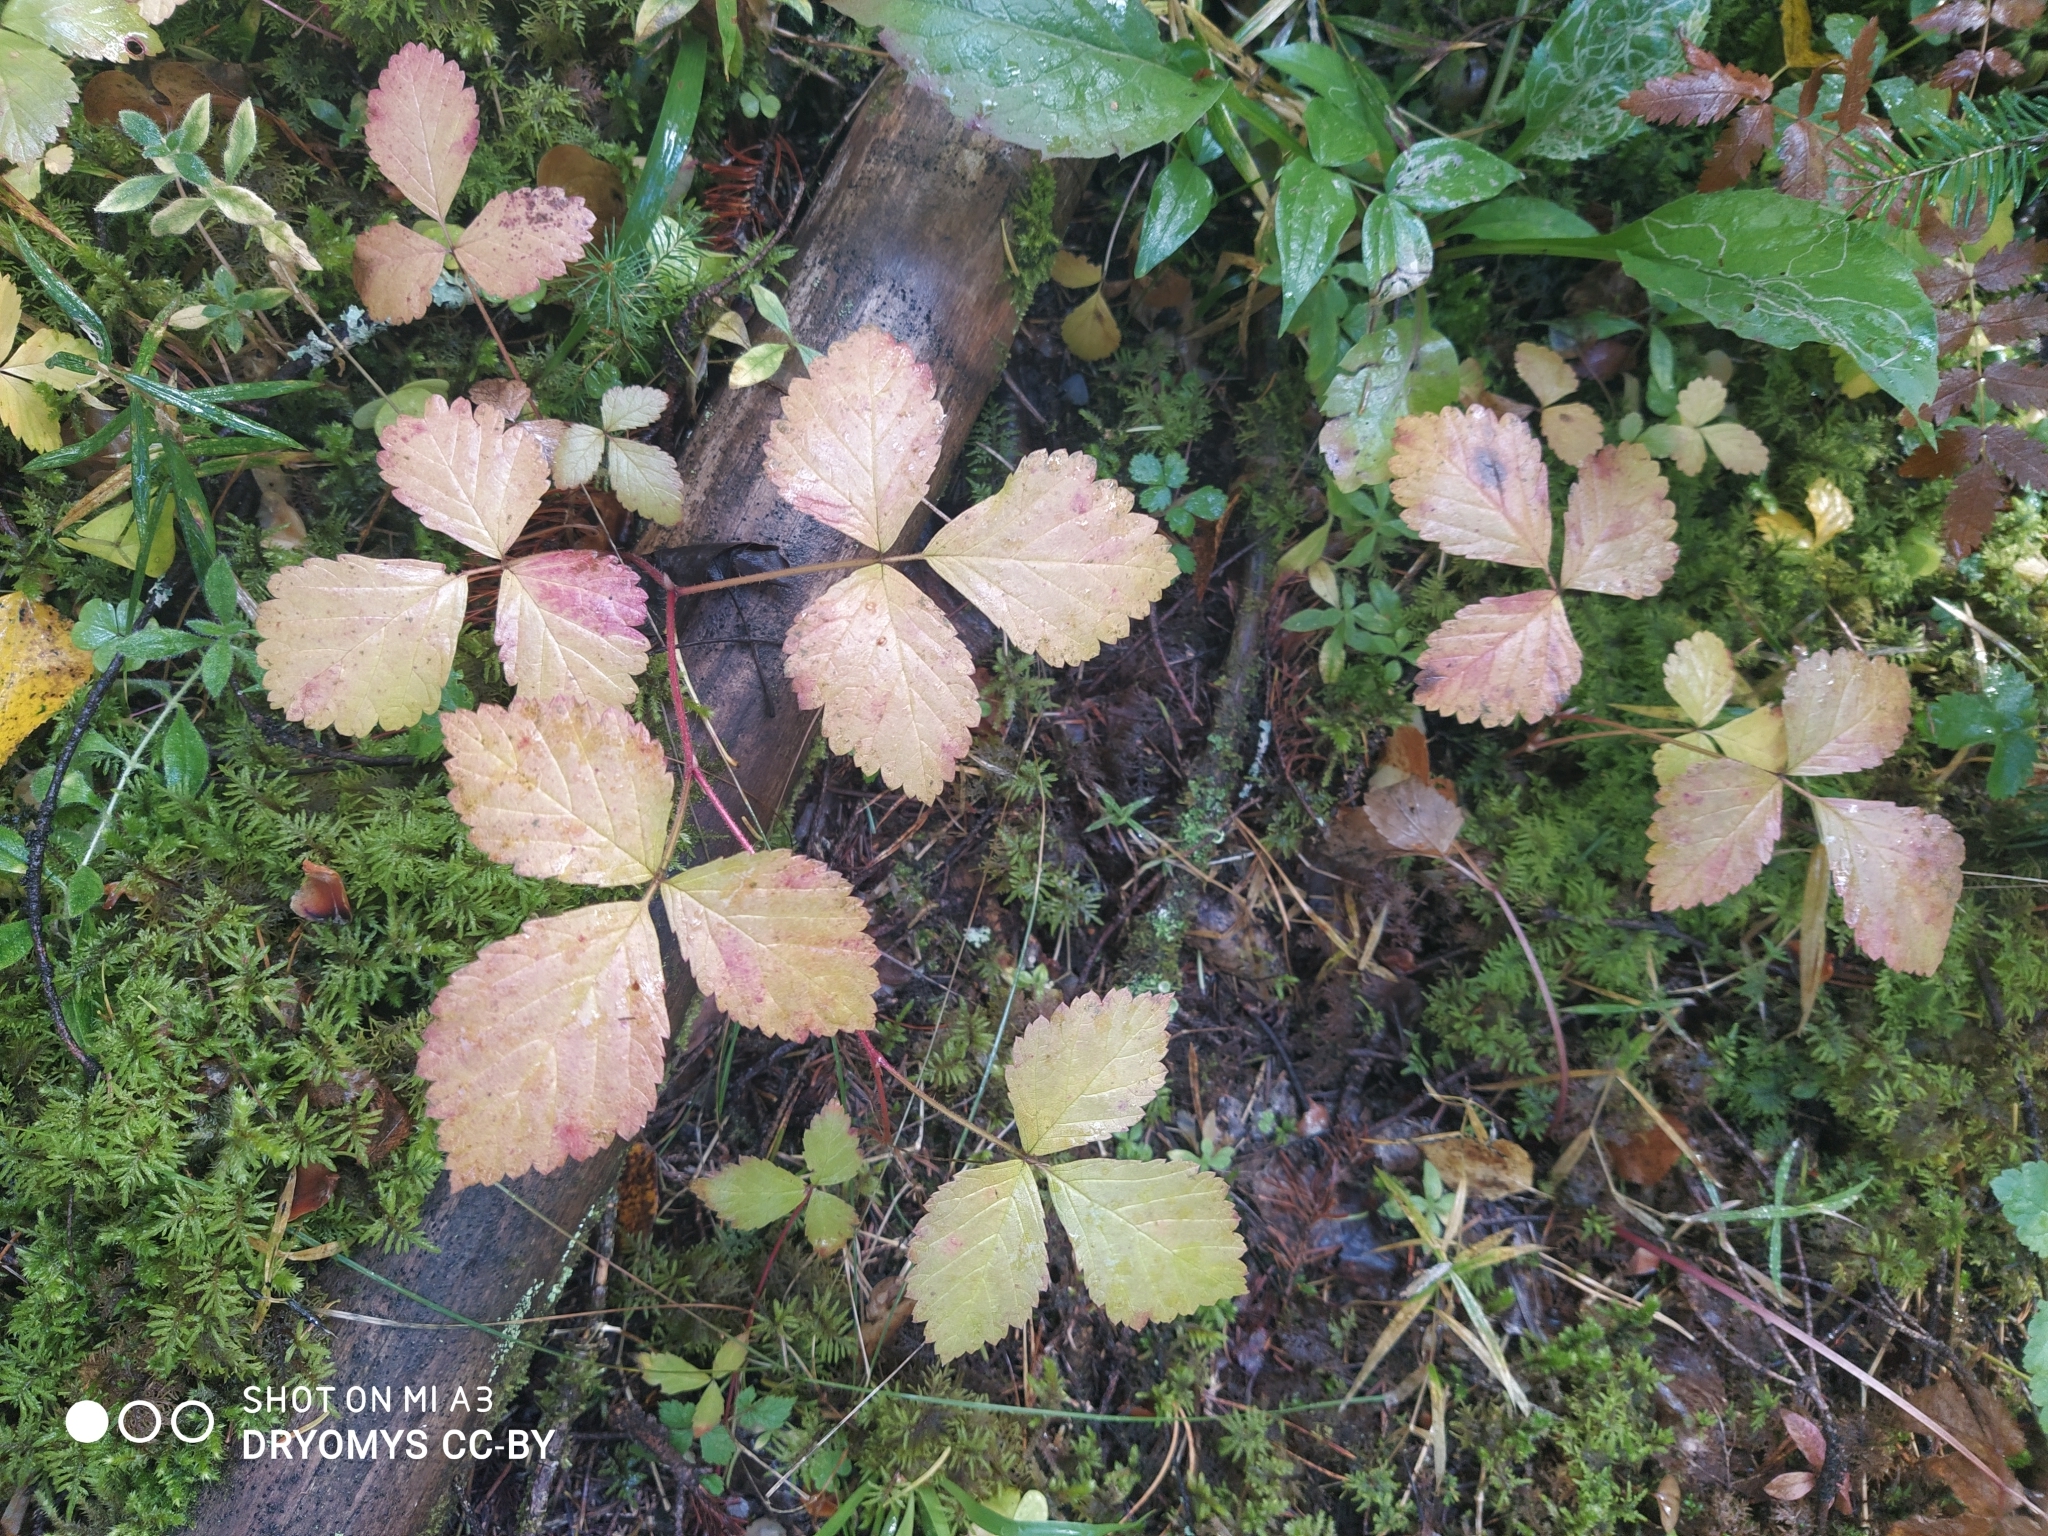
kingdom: Plantae
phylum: Tracheophyta
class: Magnoliopsida
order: Rosales
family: Rosaceae
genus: Rubus
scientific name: Rubus saxatilis
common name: Stone bramble
